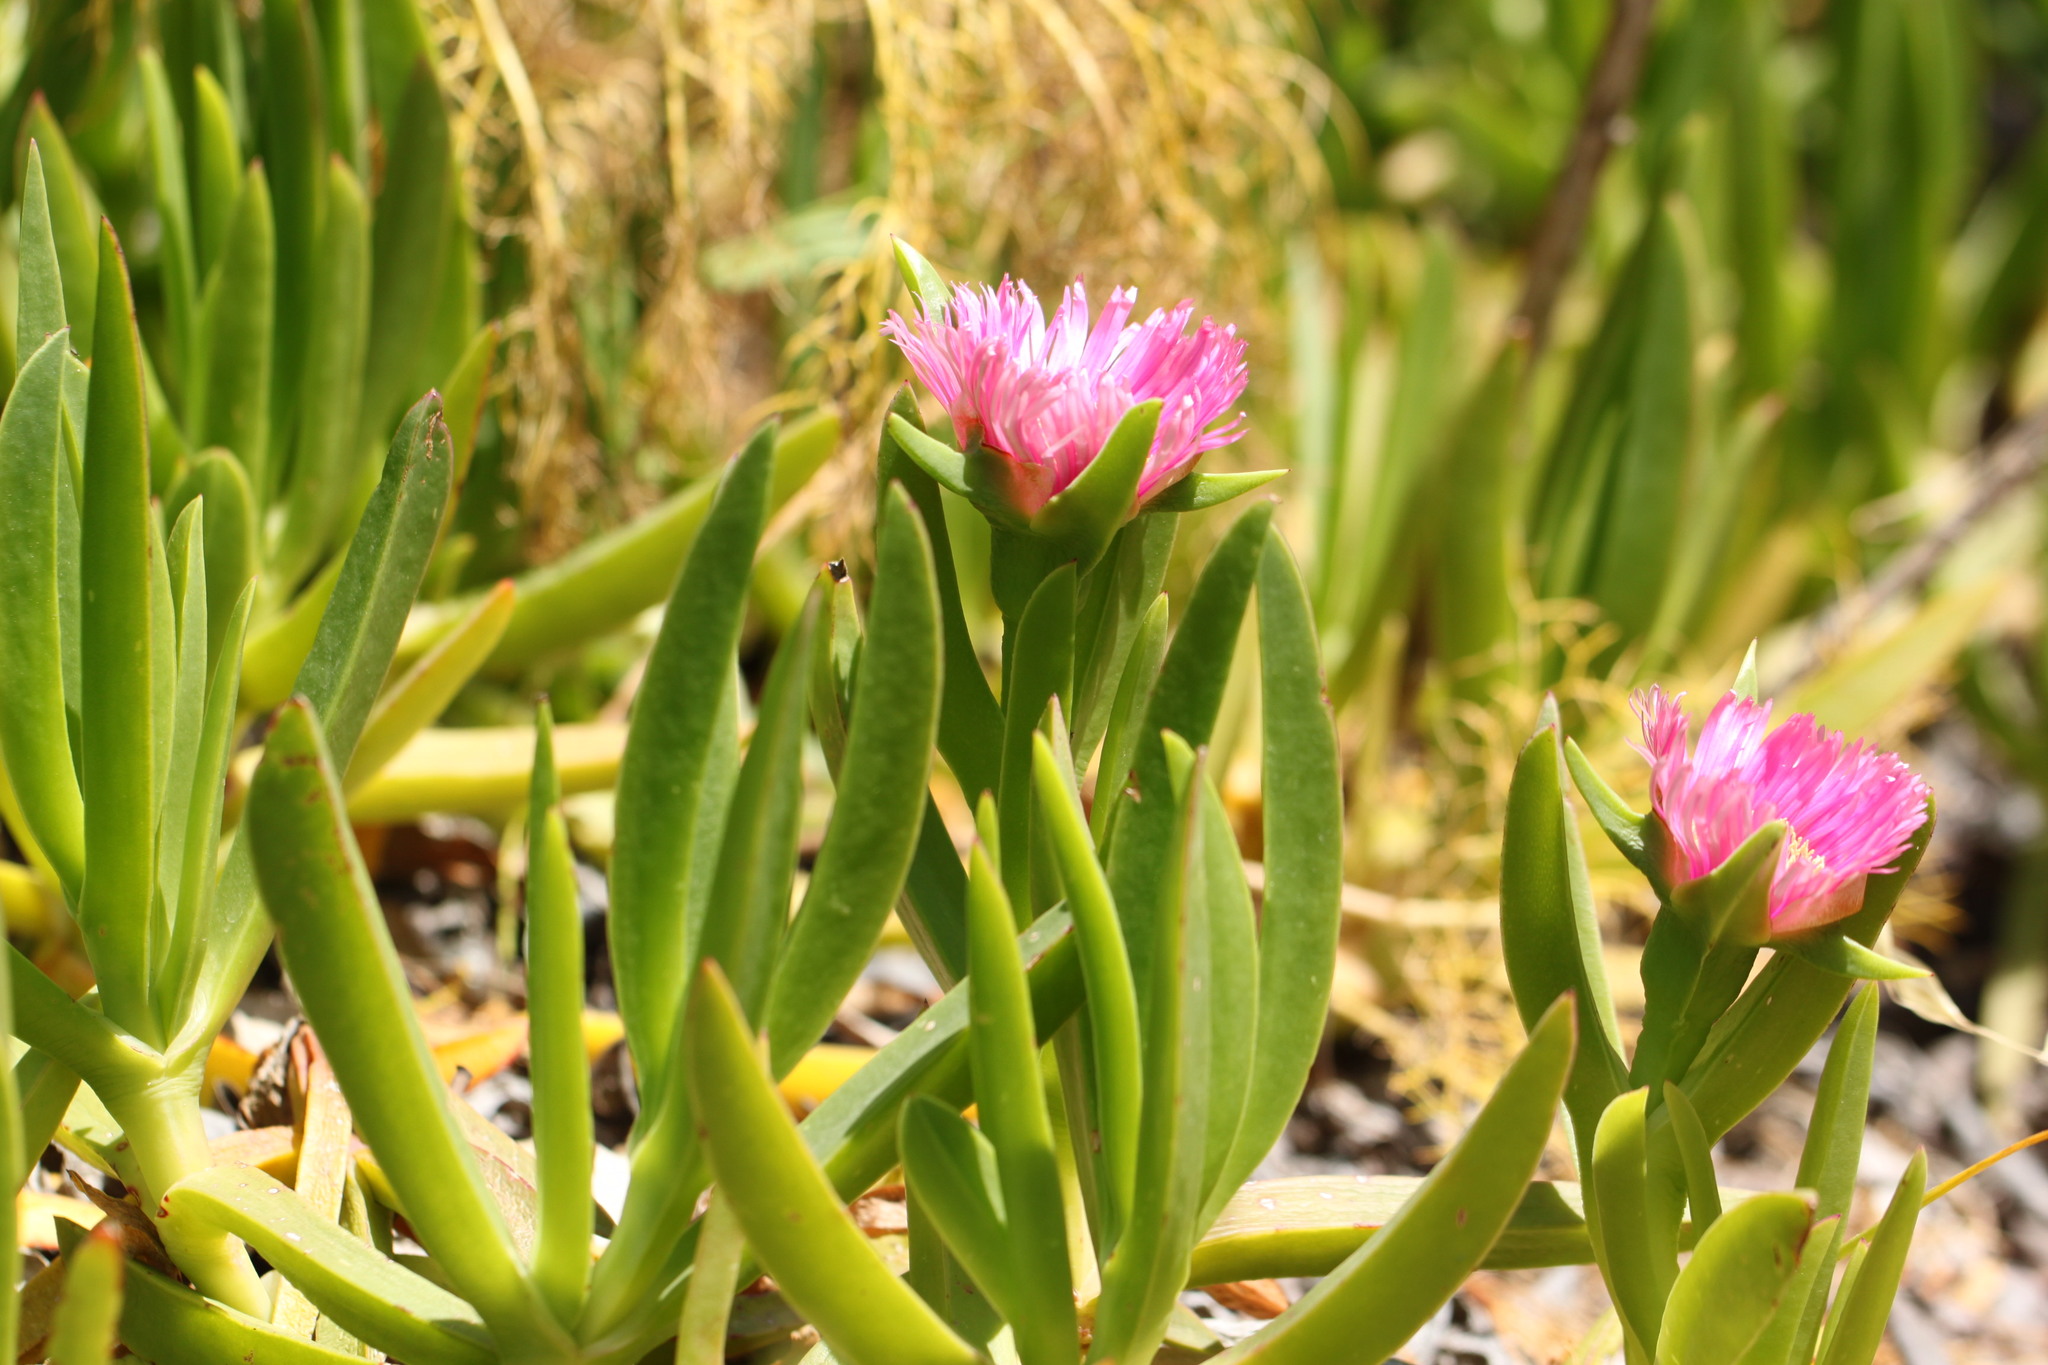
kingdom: Plantae
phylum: Tracheophyta
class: Magnoliopsida
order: Caryophyllales
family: Aizoaceae
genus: Carpobrotus
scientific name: Carpobrotus acinaciformis
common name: Sally-my-handsome
